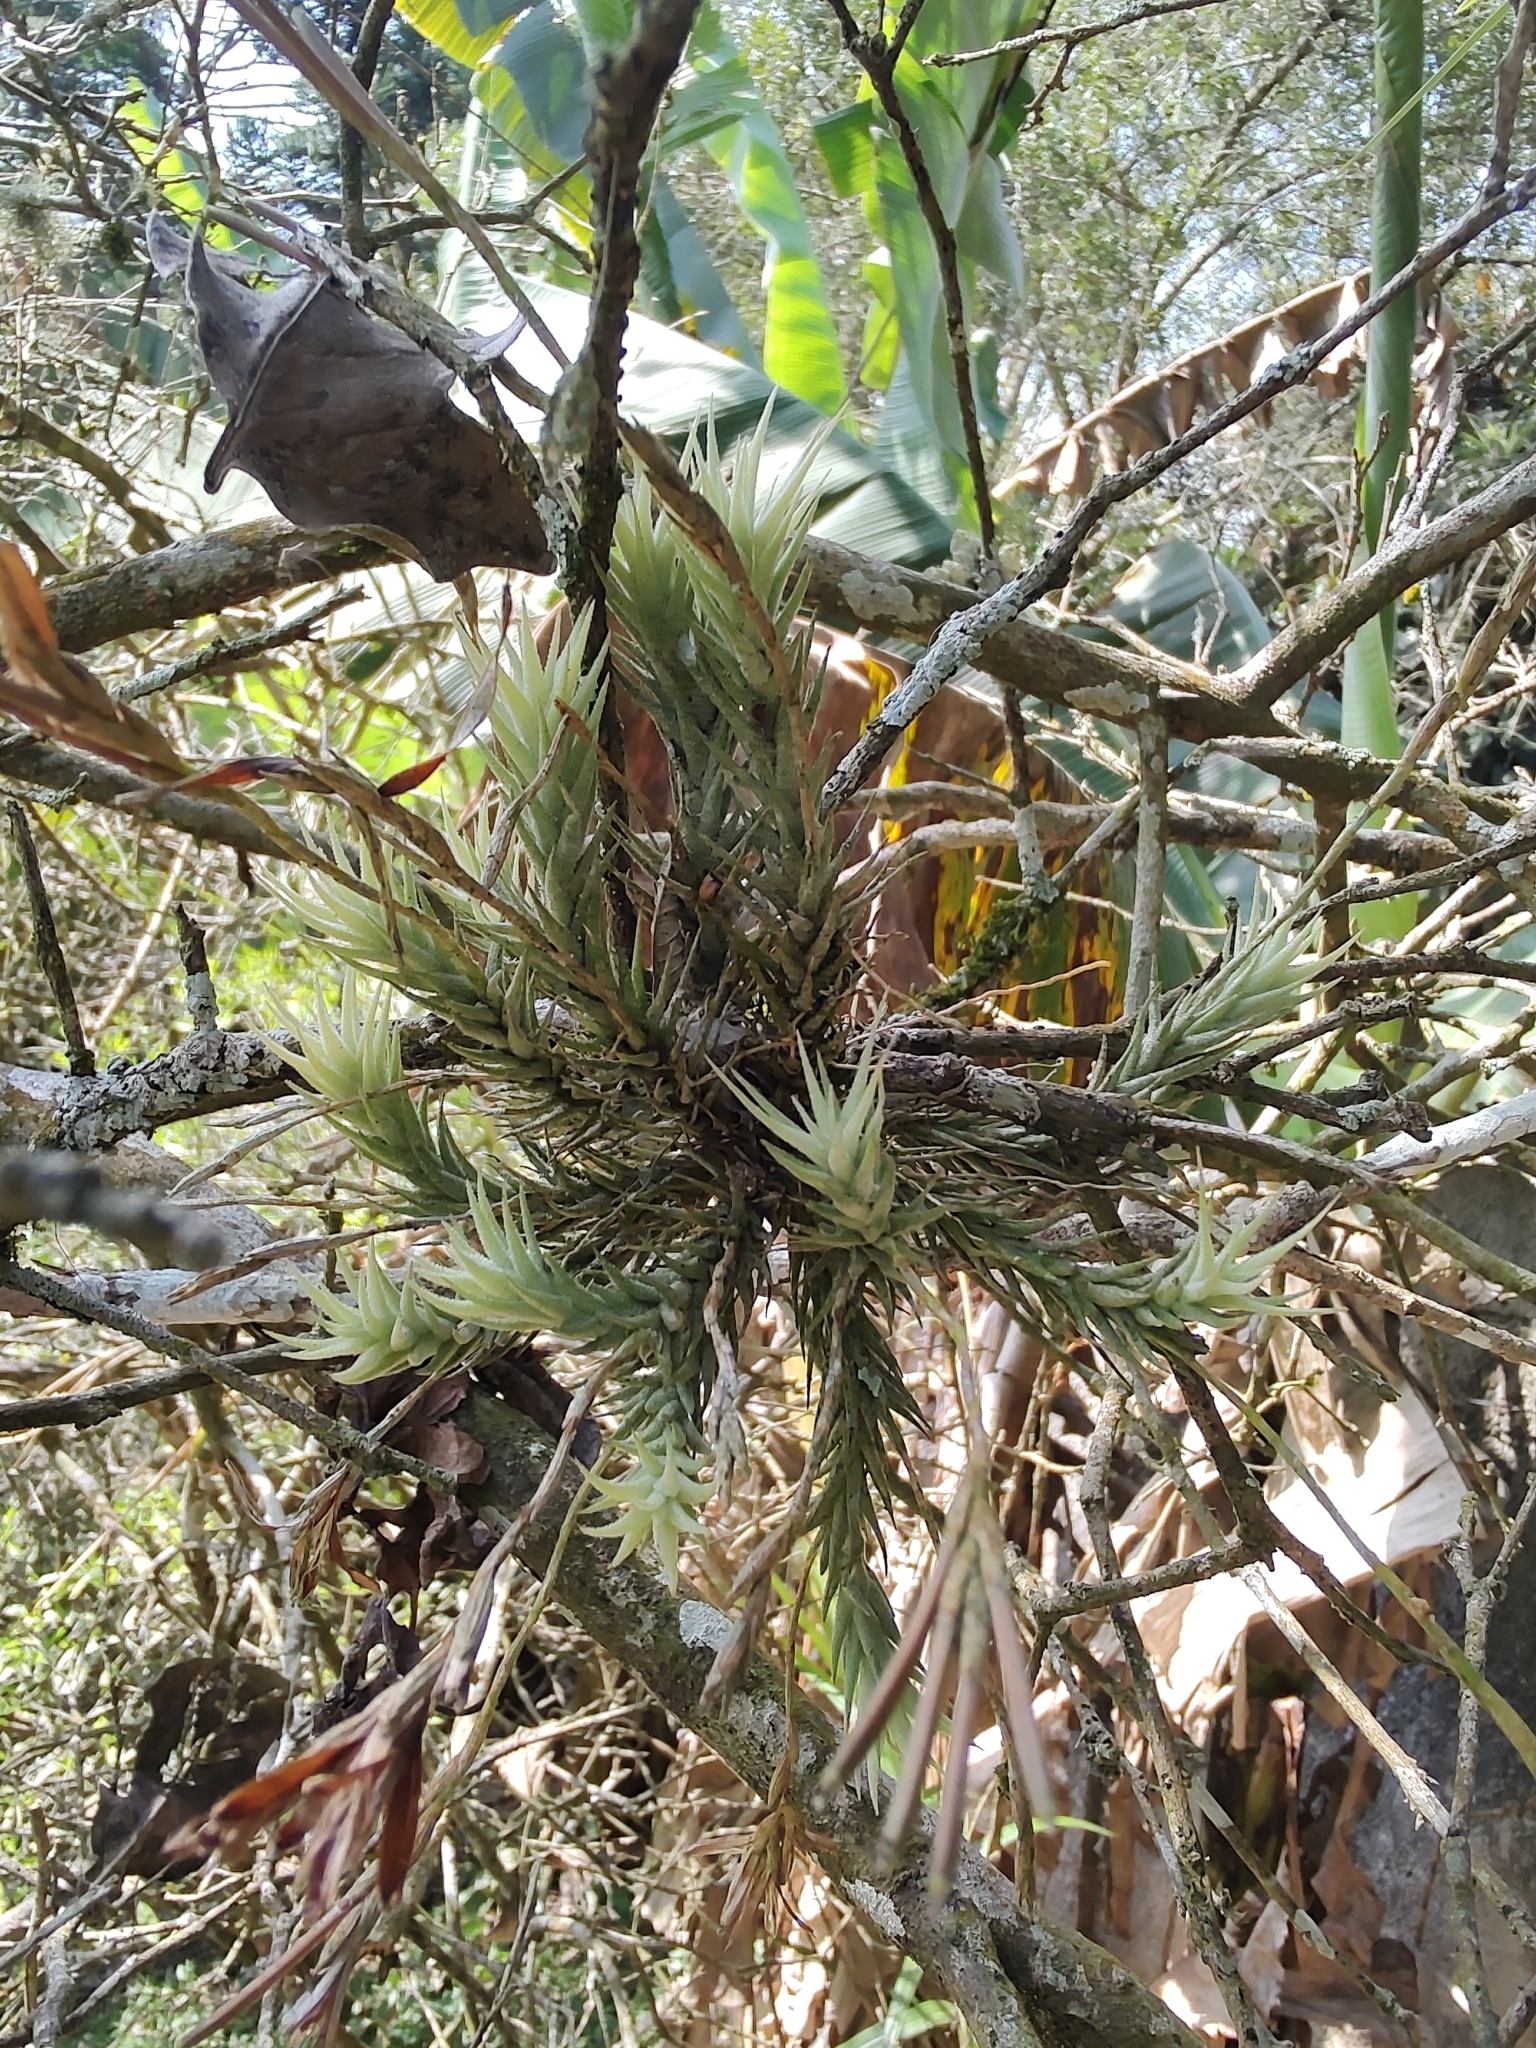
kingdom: Plantae
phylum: Tracheophyta
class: Liliopsida
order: Poales
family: Bromeliaceae
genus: Tillandsia
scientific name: Tillandsia tricholepis
